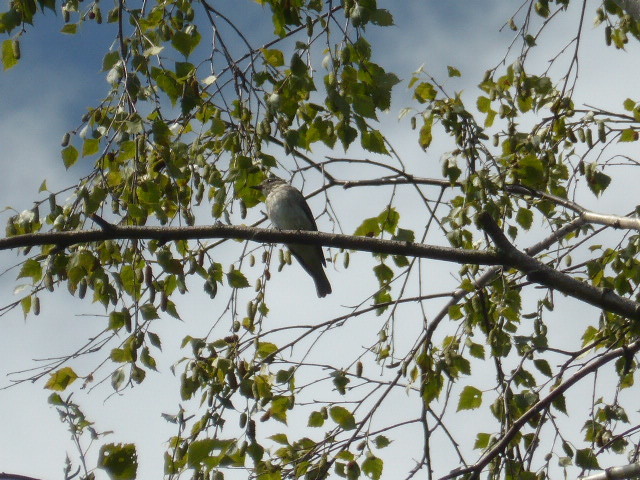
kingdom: Animalia
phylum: Chordata
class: Aves
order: Passeriformes
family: Muscicapidae
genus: Muscicapa
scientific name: Muscicapa striata
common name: Spotted flycatcher
